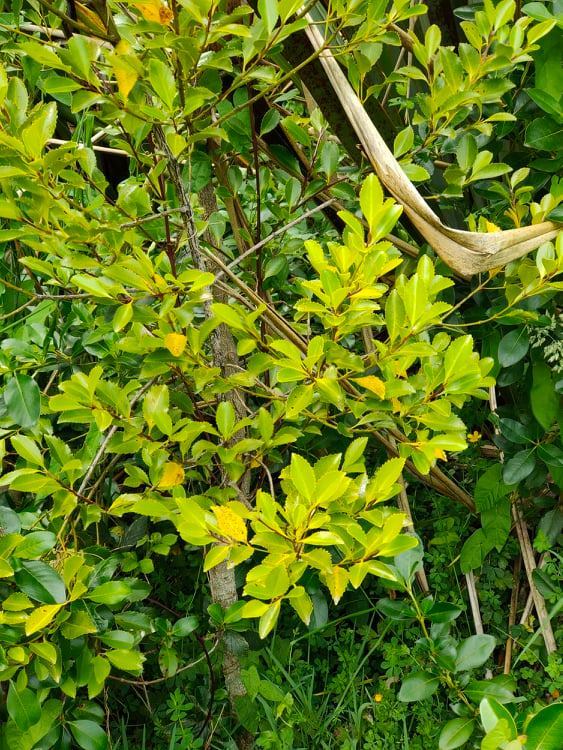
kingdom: Plantae
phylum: Tracheophyta
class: Magnoliopsida
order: Laurales
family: Atherospermataceae
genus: Laurelia
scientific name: Laurelia novae-zelandiae
